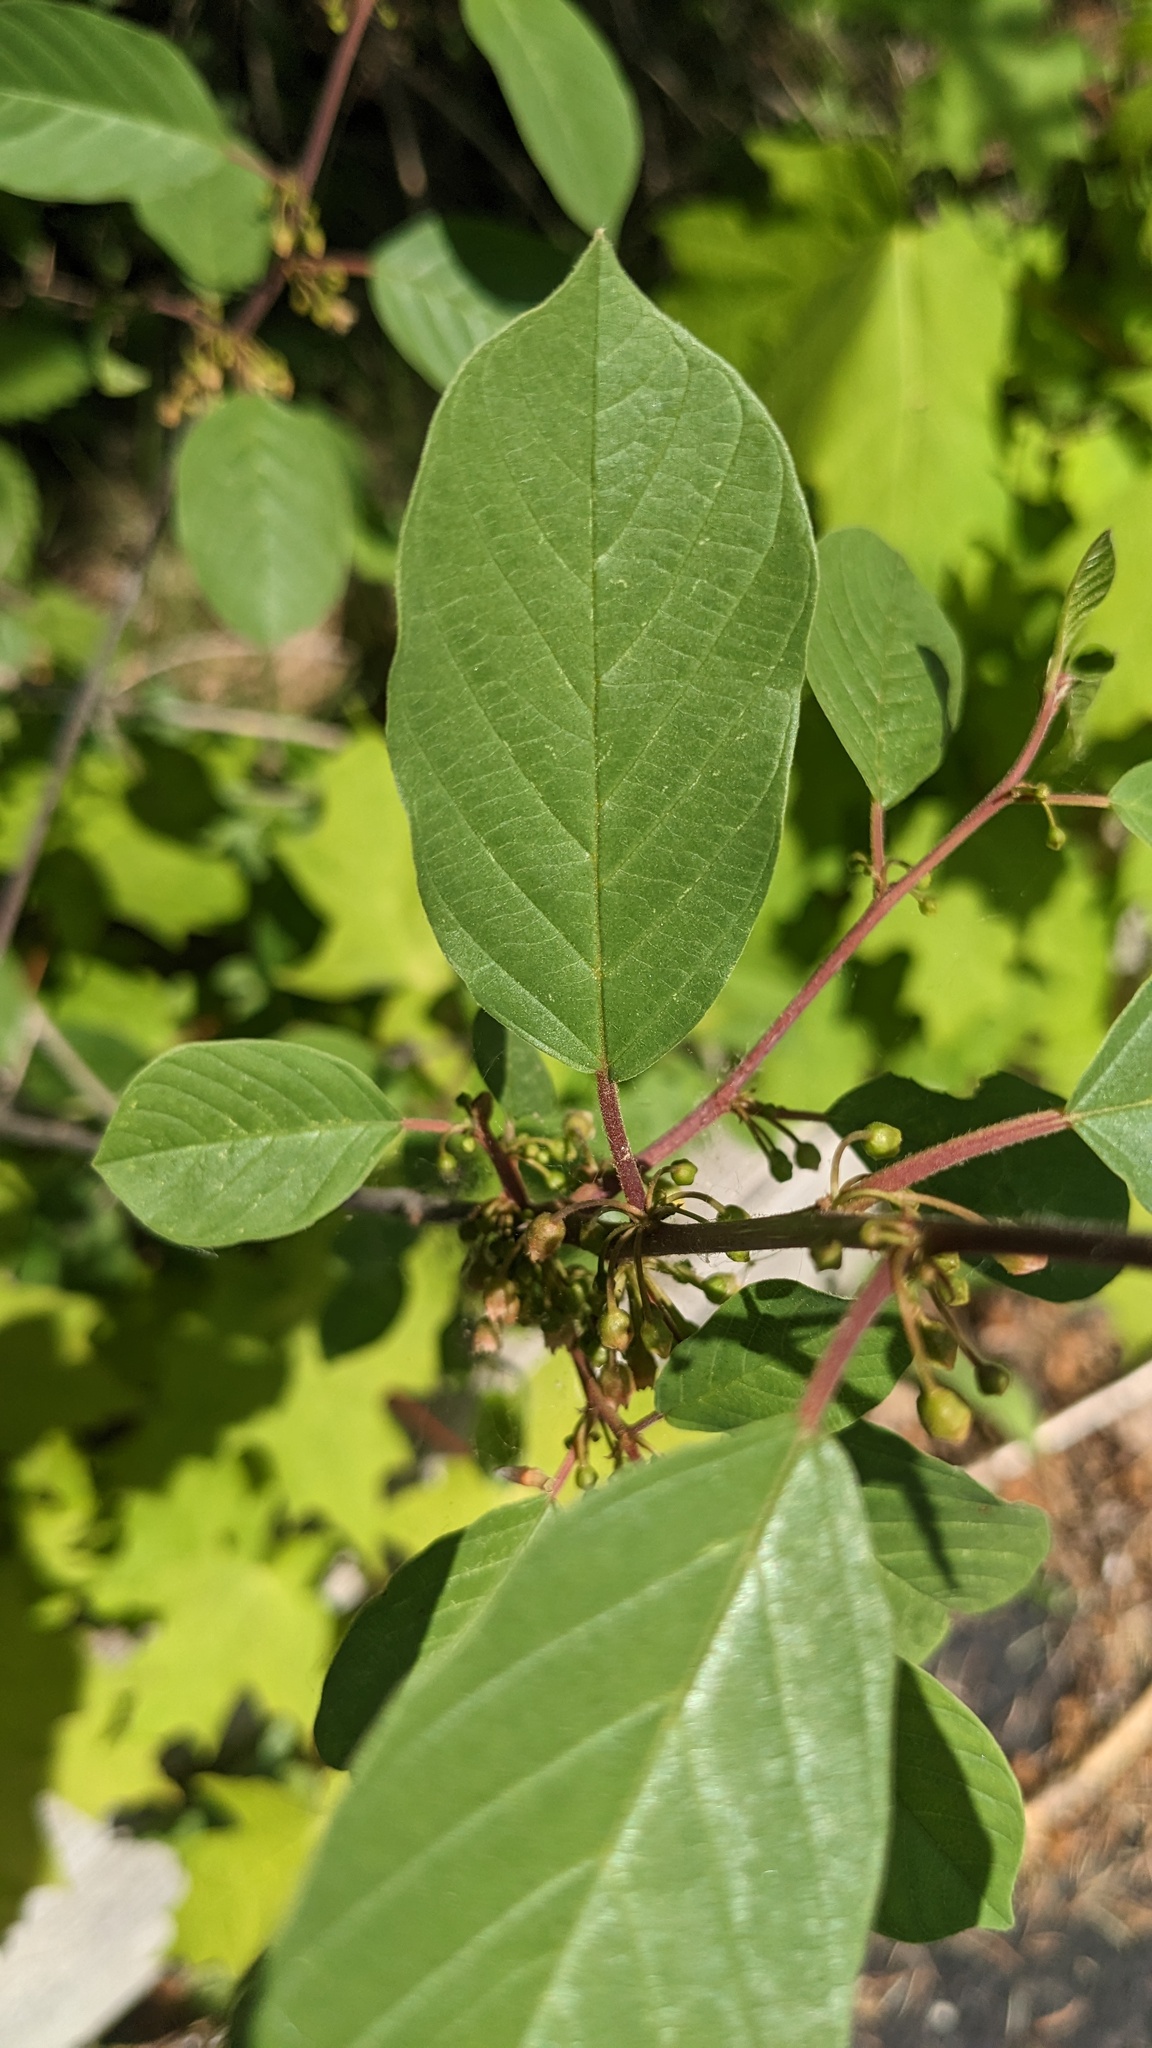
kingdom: Plantae
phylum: Tracheophyta
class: Magnoliopsida
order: Rosales
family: Rhamnaceae
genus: Frangula
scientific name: Frangula alnus
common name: Alder buckthorn
